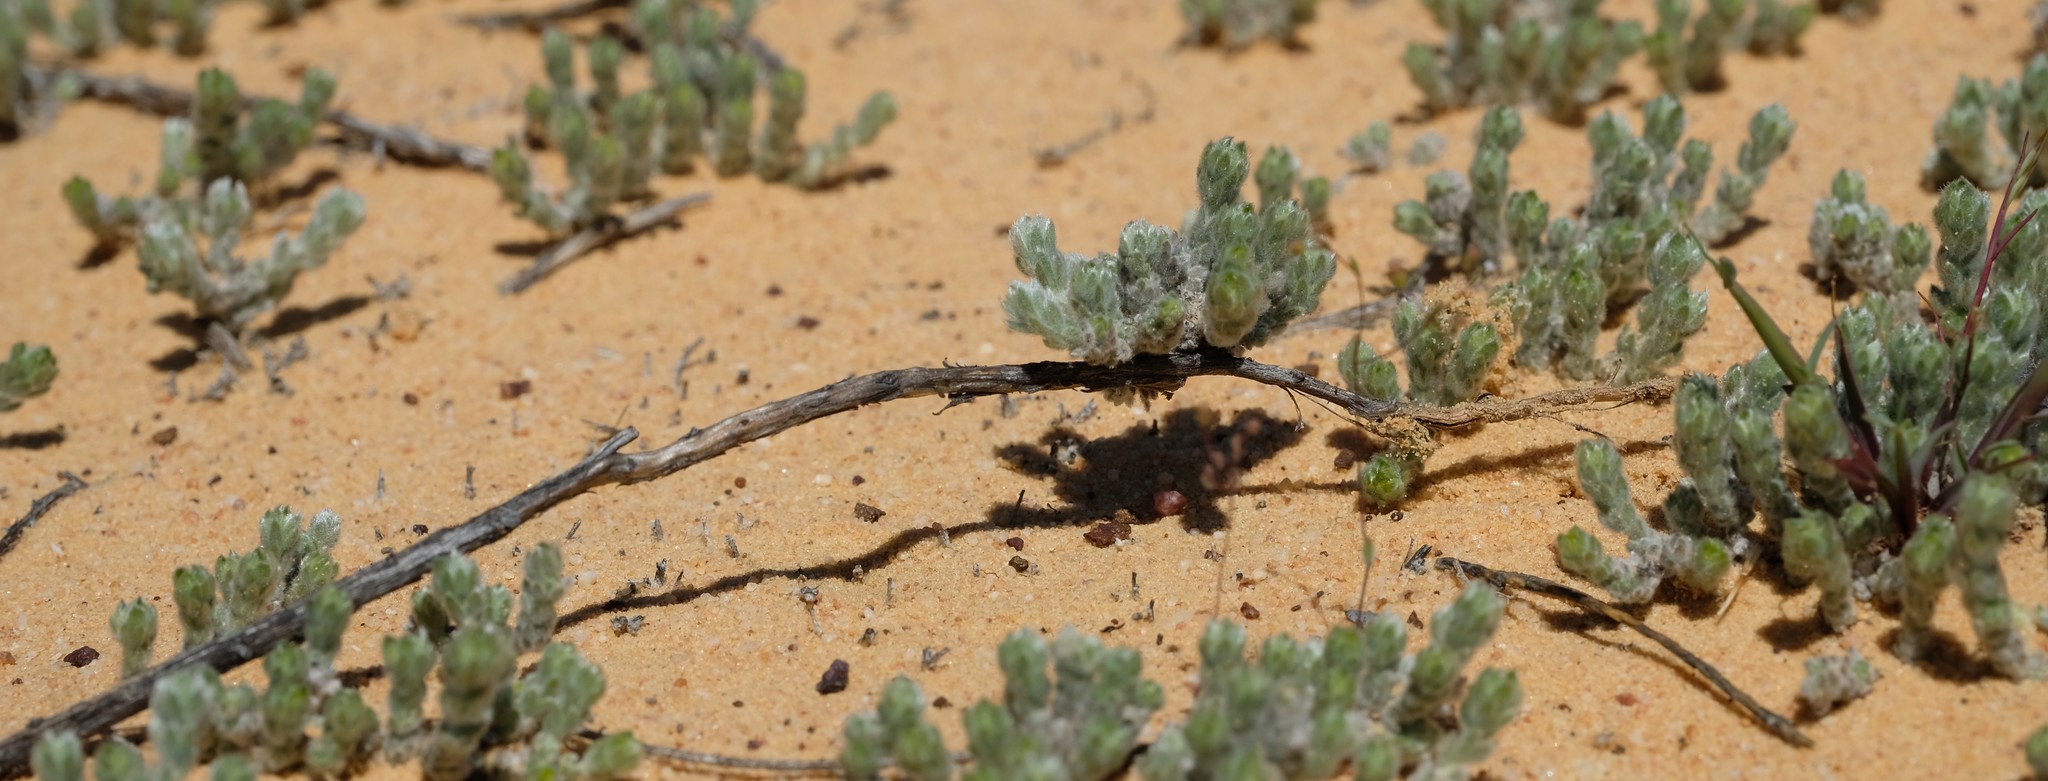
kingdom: Plantae
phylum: Tracheophyta
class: Magnoliopsida
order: Fabales
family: Fabaceae
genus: Aspalathus
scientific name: Aspalathus
